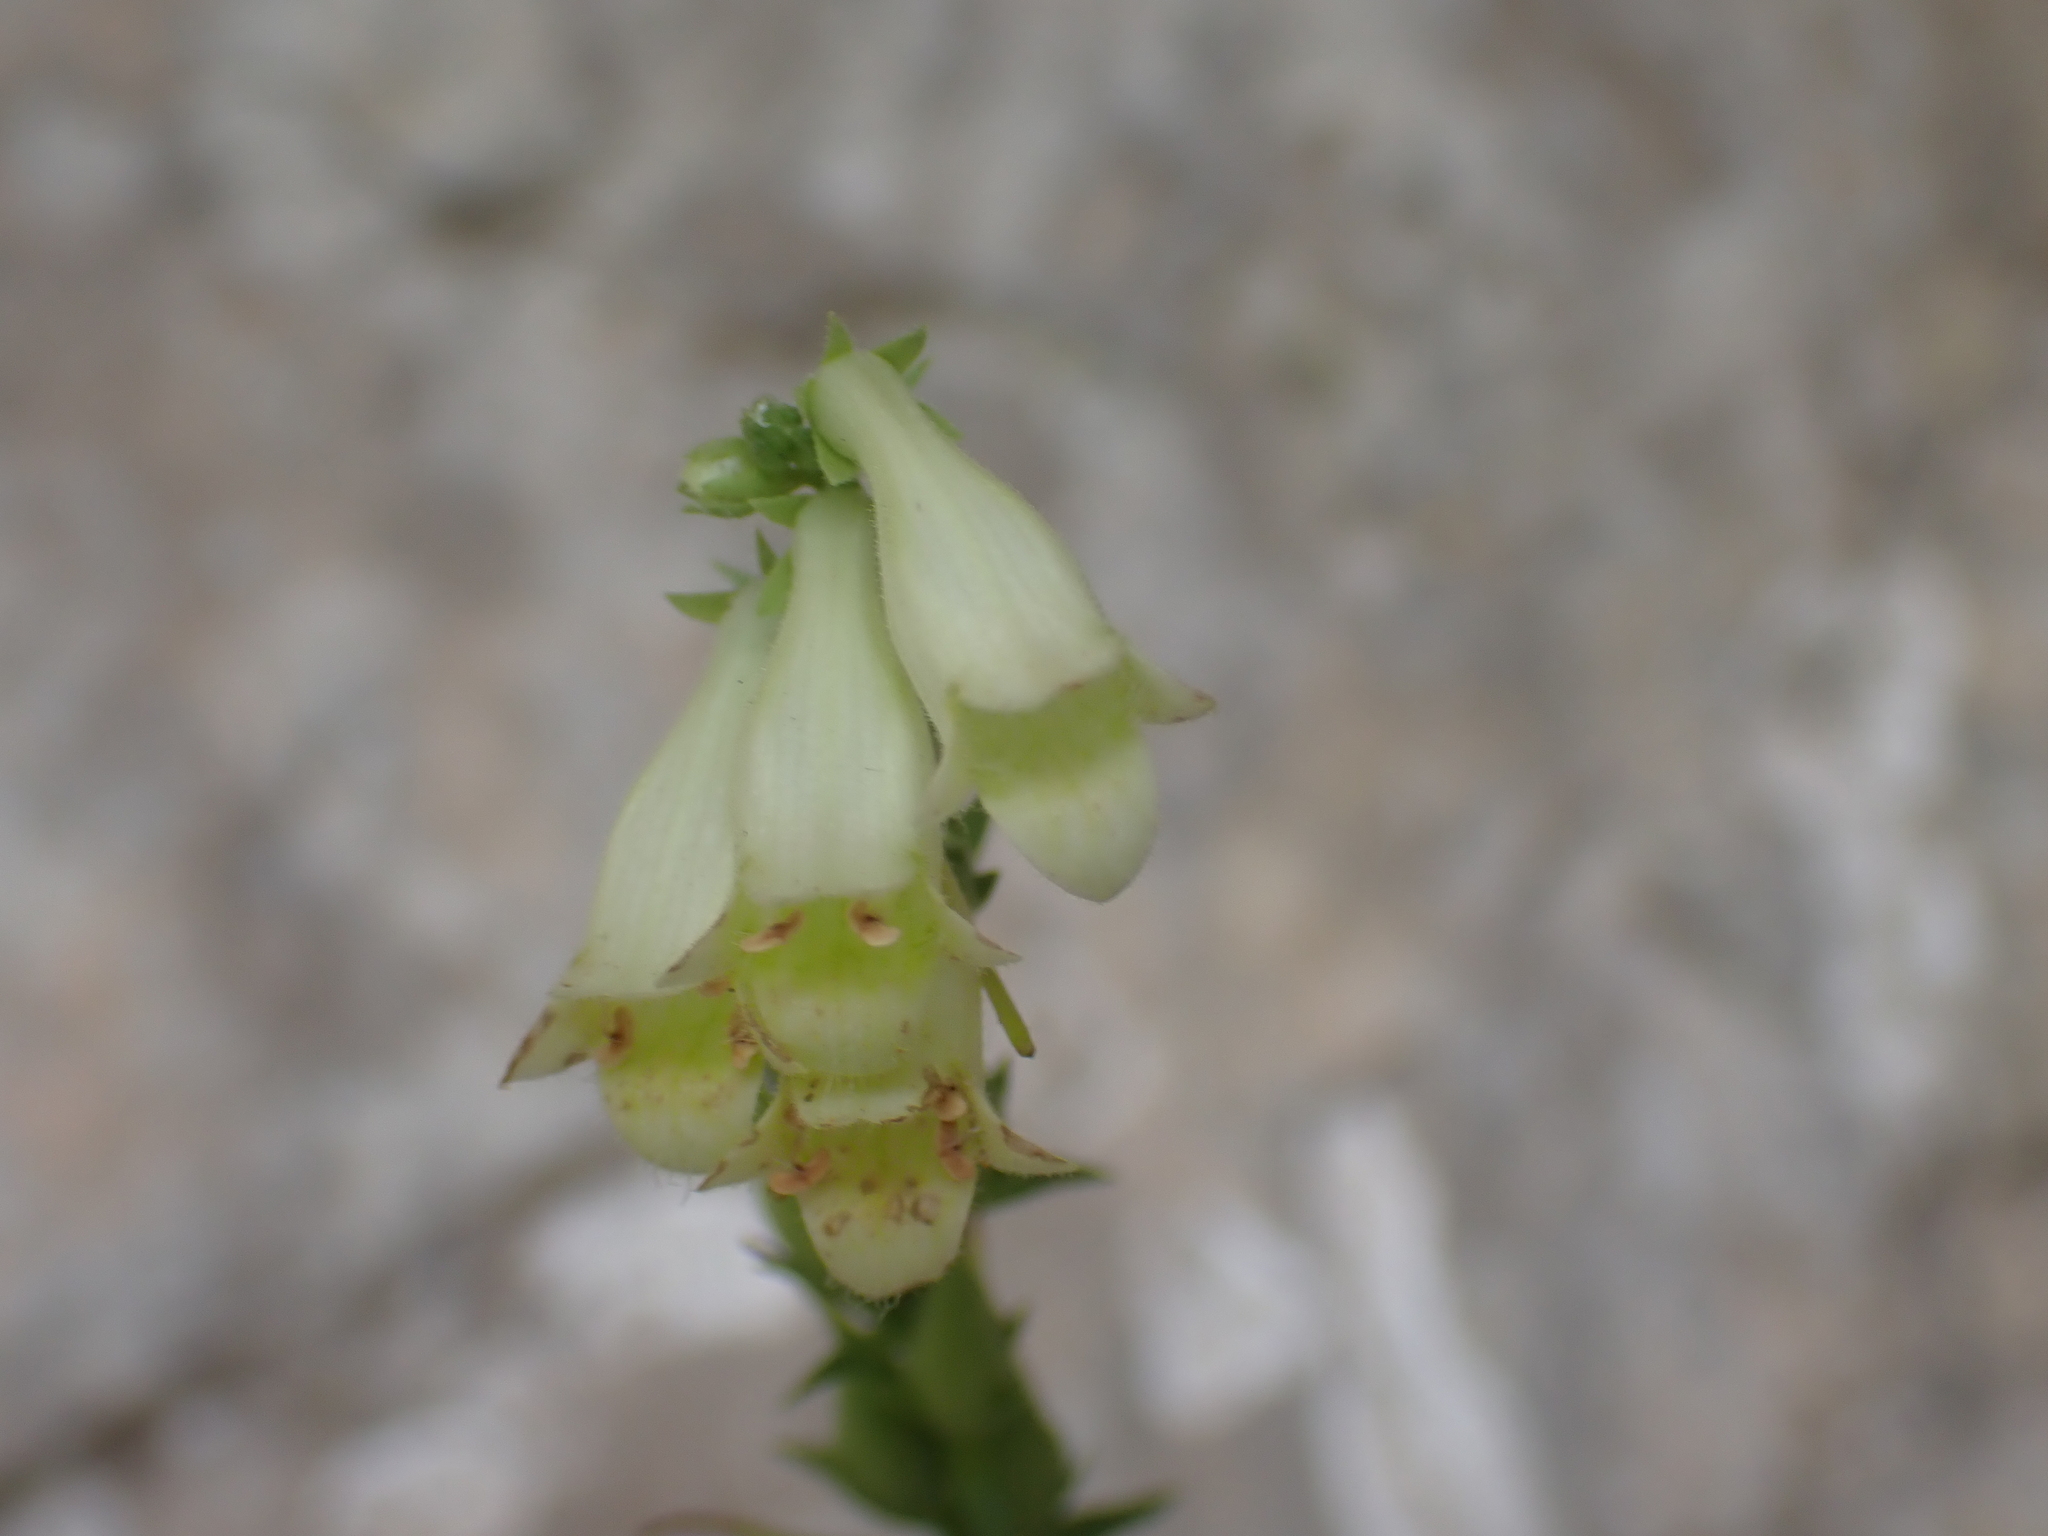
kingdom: Plantae
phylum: Tracheophyta
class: Magnoliopsida
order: Lamiales
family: Plantaginaceae
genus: Digitalis
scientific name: Digitalis lutea
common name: Straw foxglove
